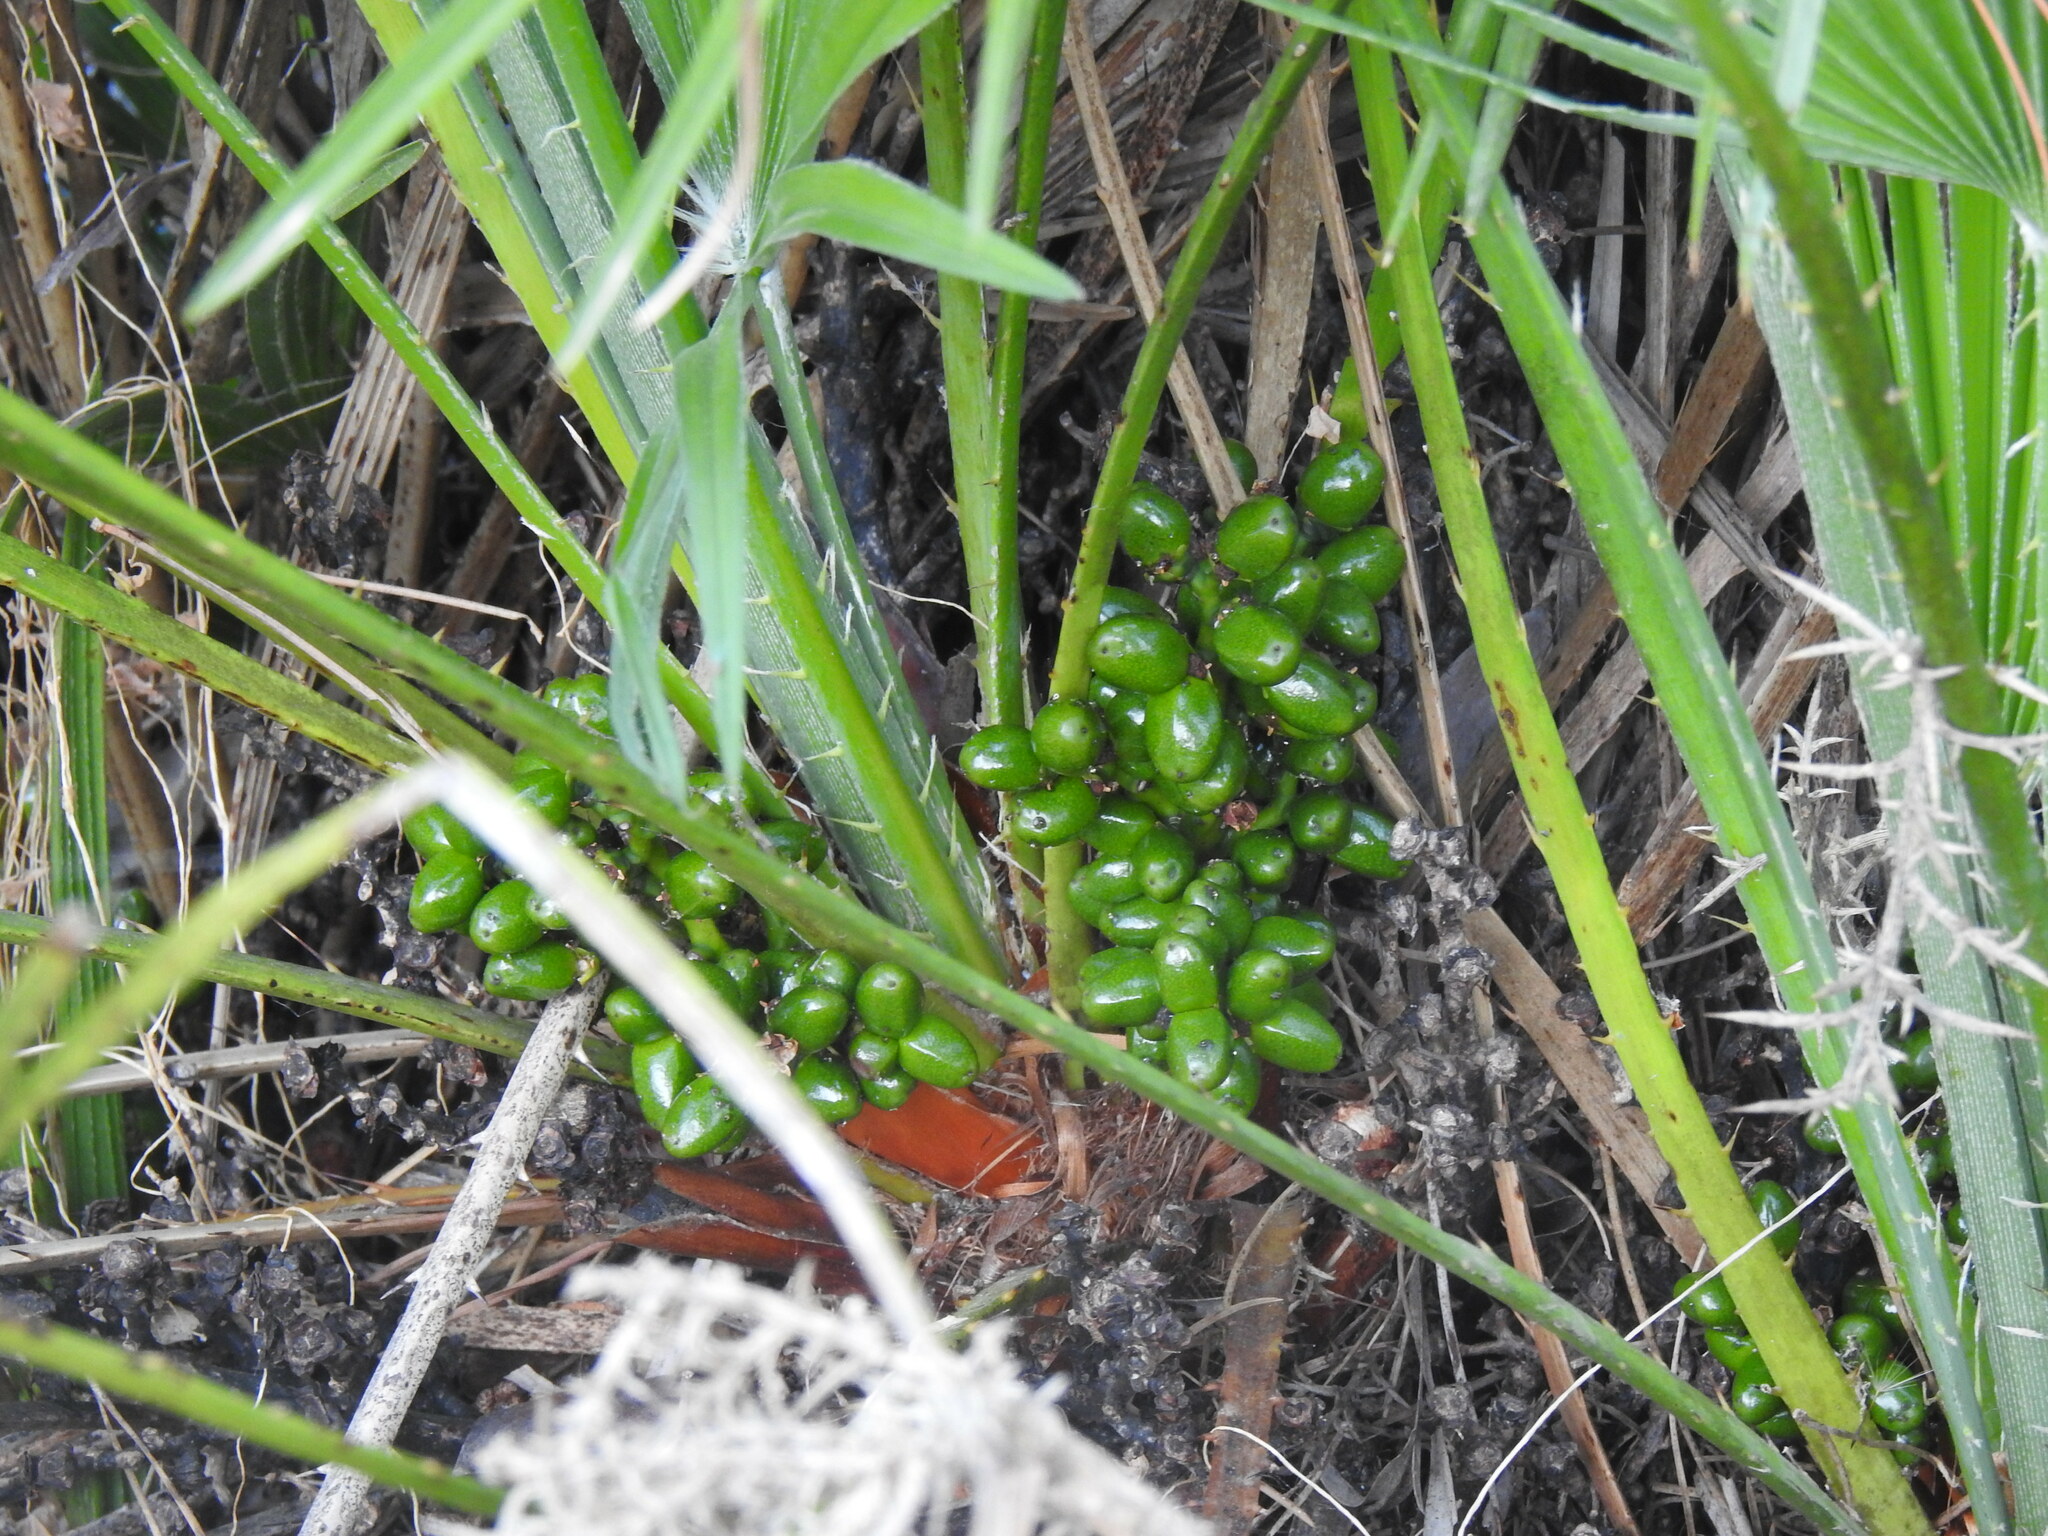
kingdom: Plantae
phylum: Tracheophyta
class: Liliopsida
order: Arecales
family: Arecaceae
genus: Chamaerops
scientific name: Chamaerops humilis
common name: Dwarf fan palm
